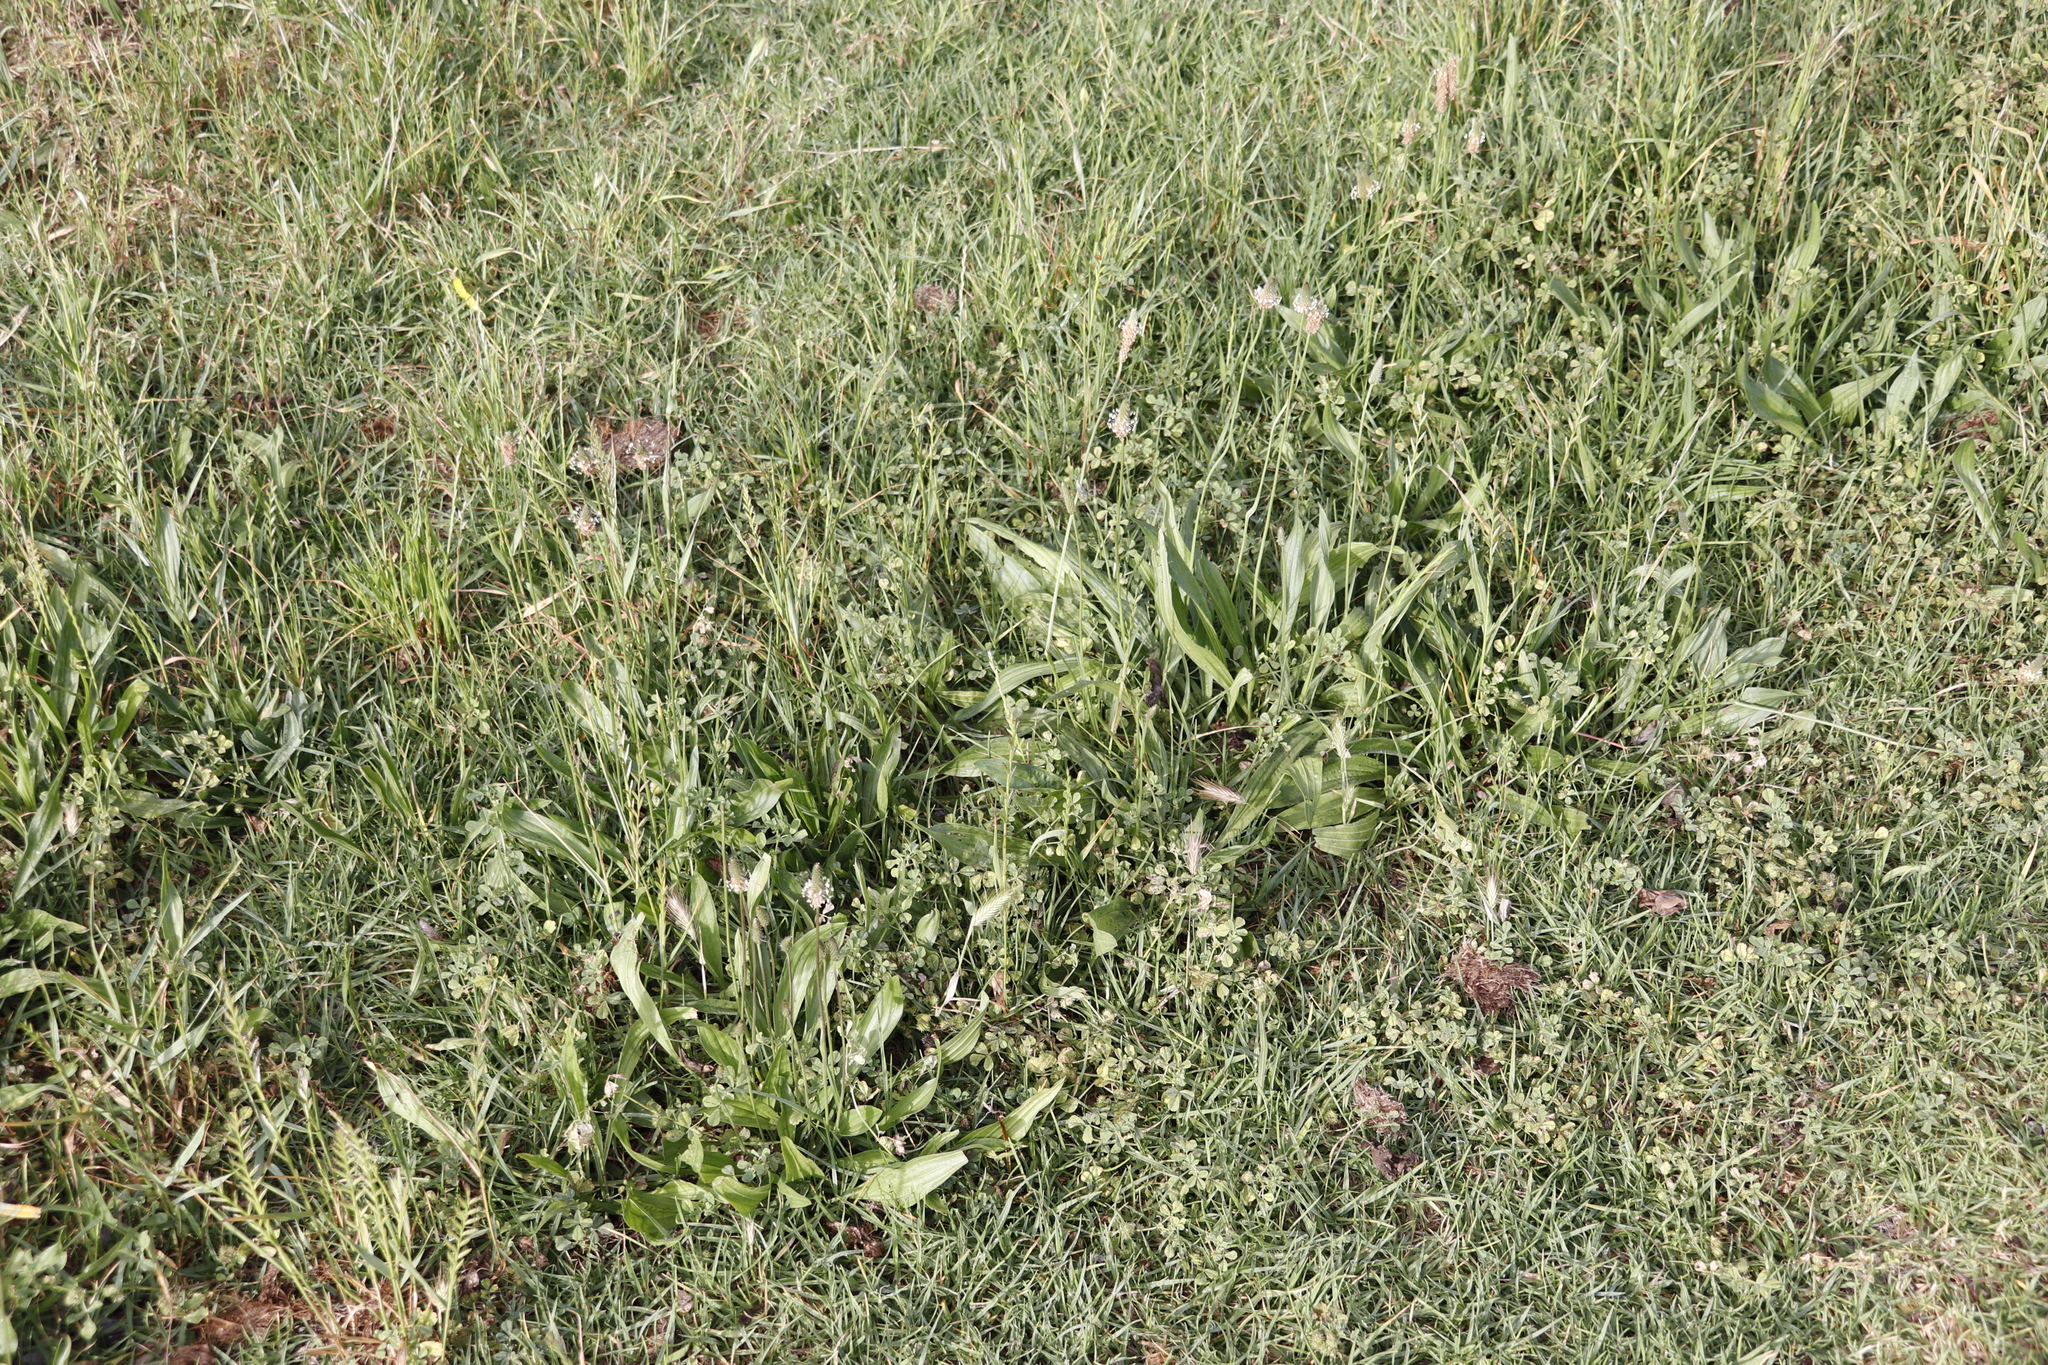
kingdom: Plantae
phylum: Tracheophyta
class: Magnoliopsida
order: Lamiales
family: Plantaginaceae
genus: Plantago
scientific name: Plantago lanceolata
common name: Ribwort plantain
